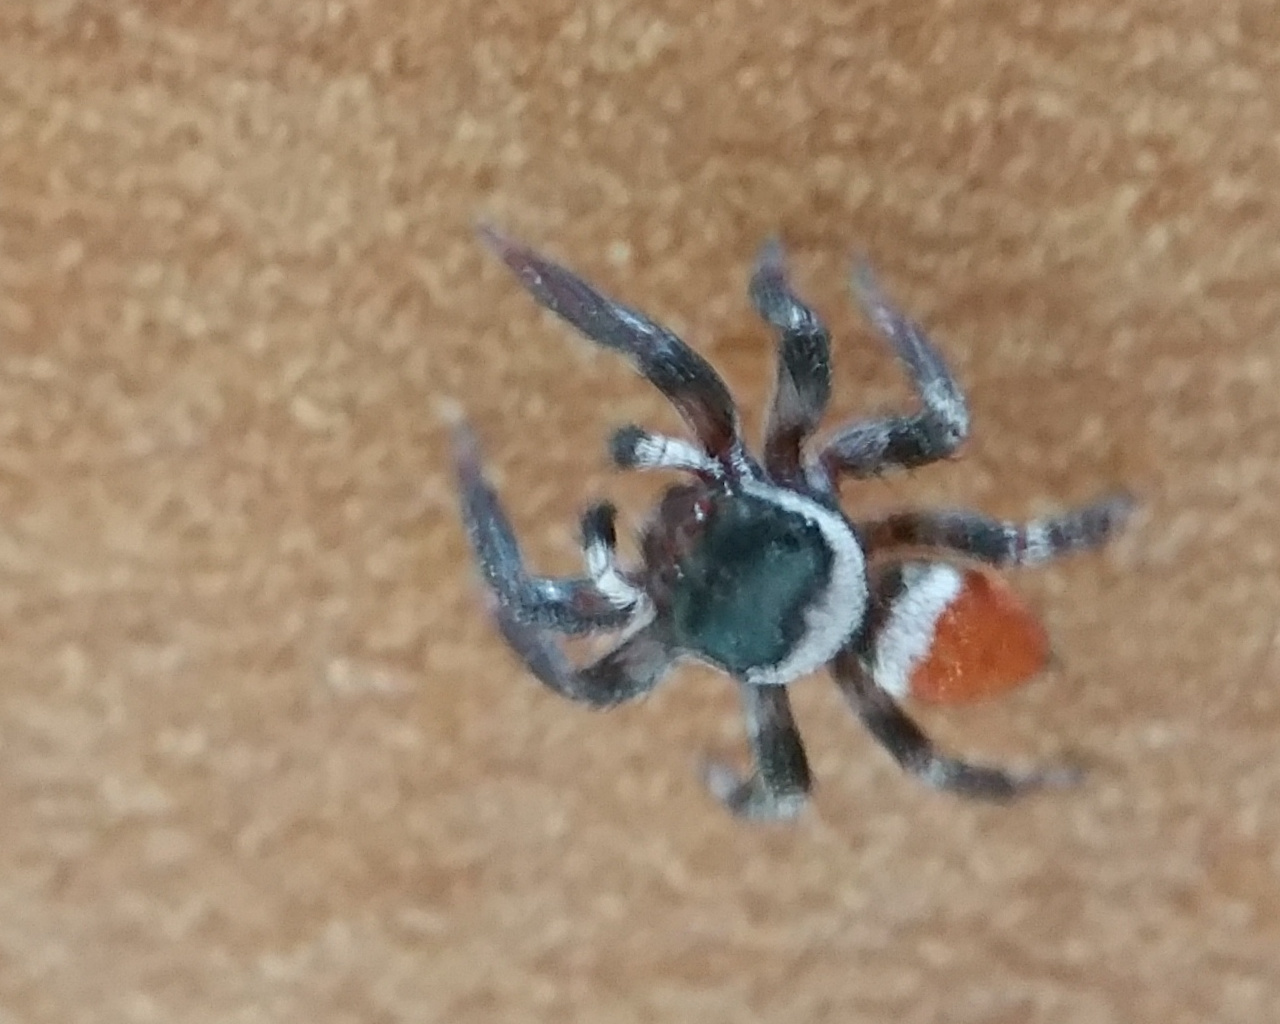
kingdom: Animalia
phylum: Arthropoda
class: Arachnida
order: Araneae
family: Salticidae
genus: Evarcha
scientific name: Evarcha patagiata
